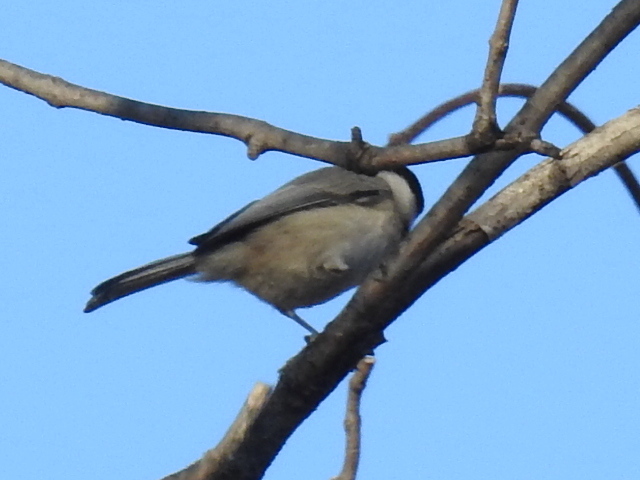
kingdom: Animalia
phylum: Chordata
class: Aves
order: Passeriformes
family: Paridae
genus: Poecile
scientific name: Poecile carolinensis
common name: Carolina chickadee
